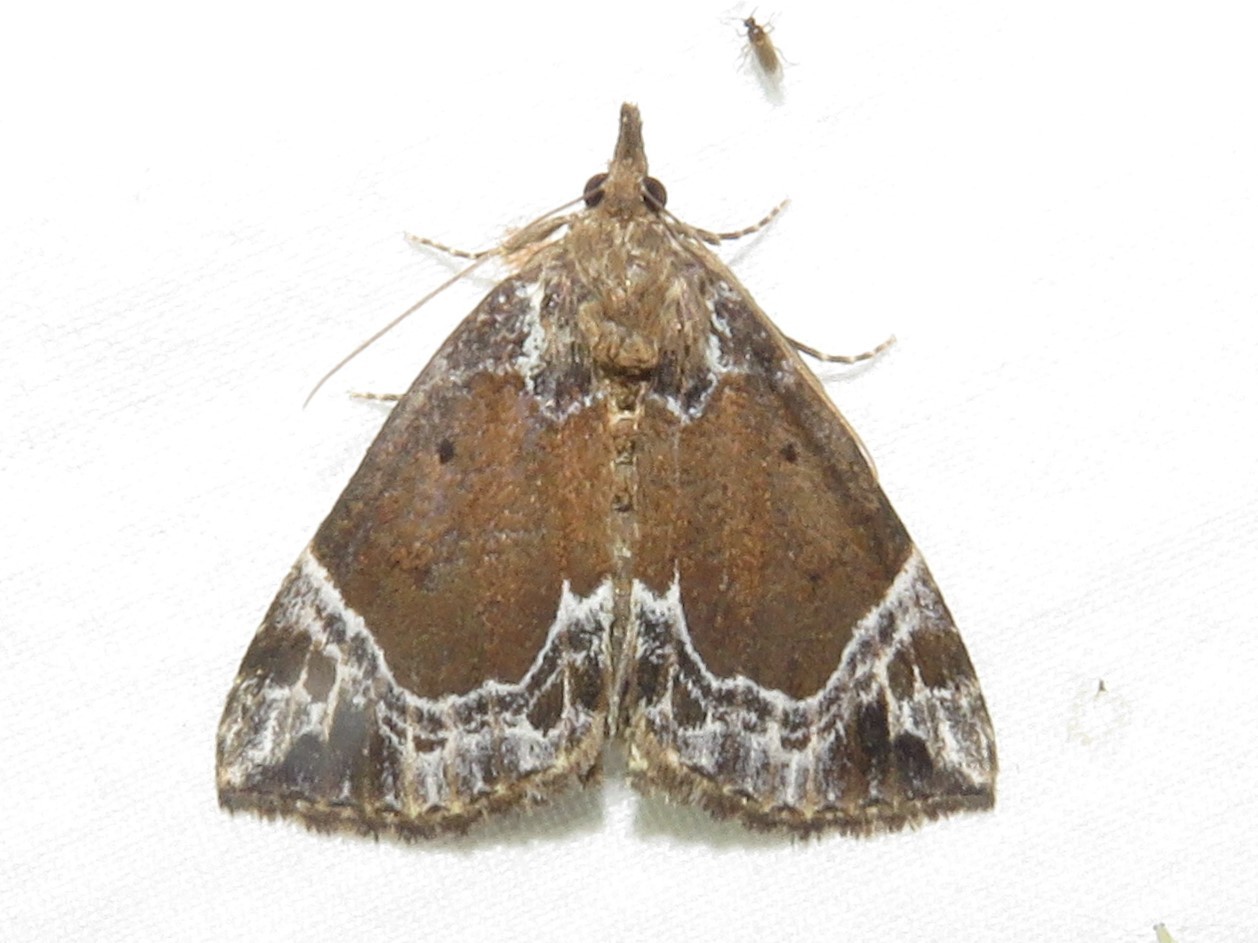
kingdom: Animalia
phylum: Arthropoda
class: Insecta
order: Lepidoptera
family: Erebidae
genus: Hypena
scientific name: Hypena abalienalis
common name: White-lined snout
